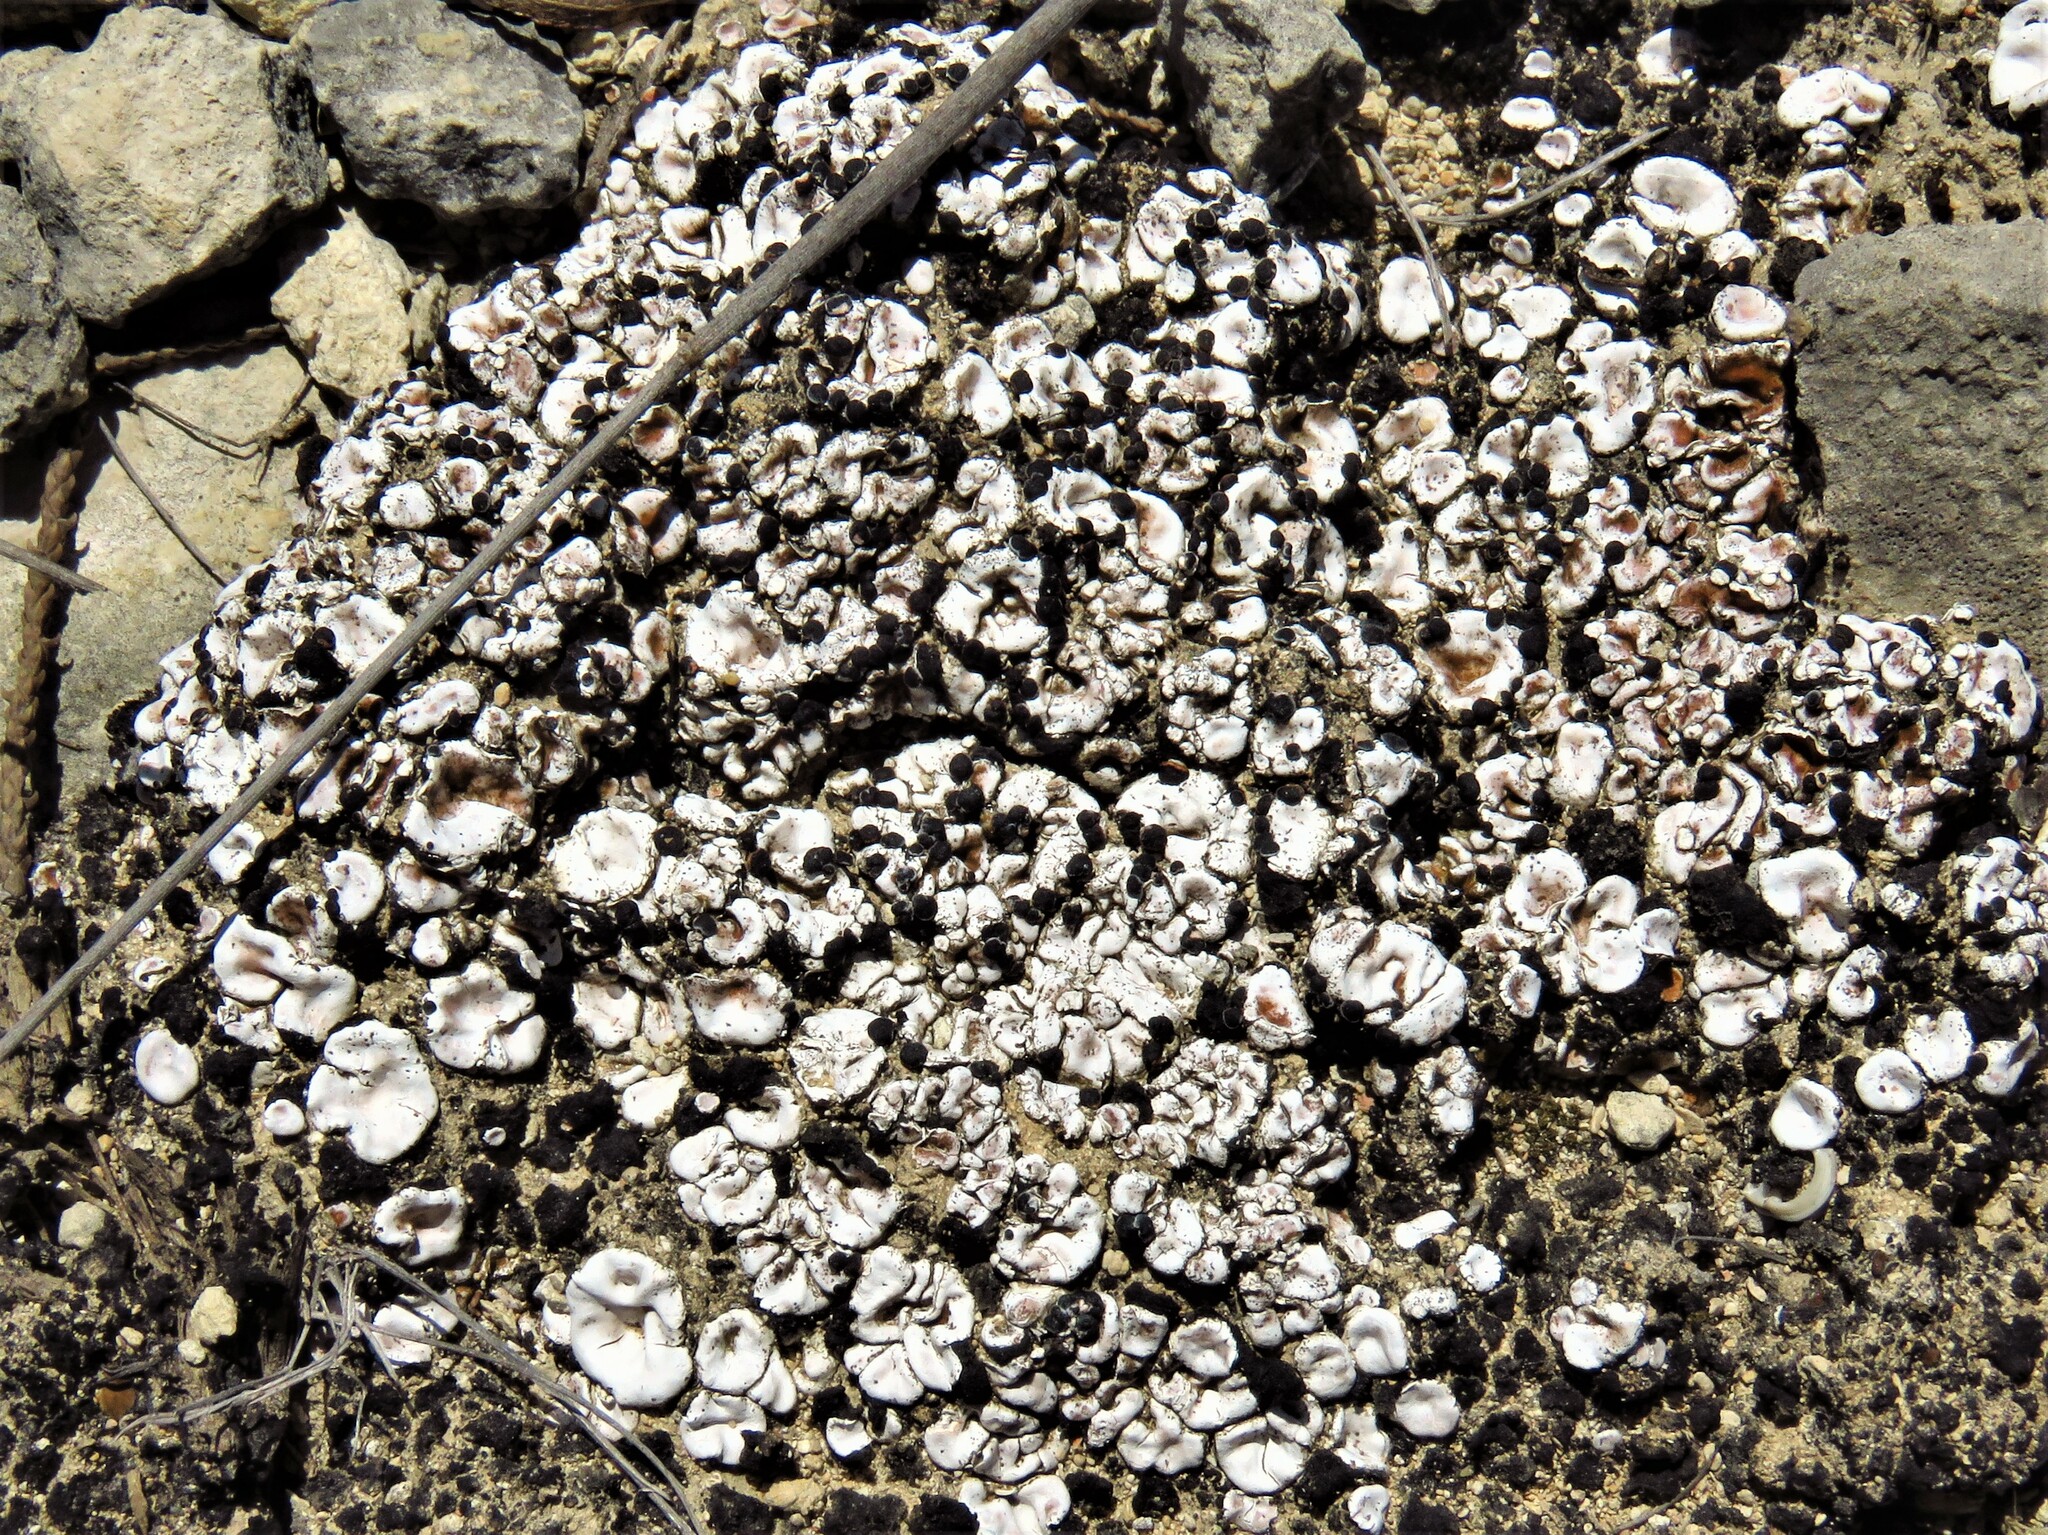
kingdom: Fungi
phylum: Ascomycota
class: Lecanoromycetes
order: Lecanorales
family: Psoraceae
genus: Psora
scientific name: Psora crenata
